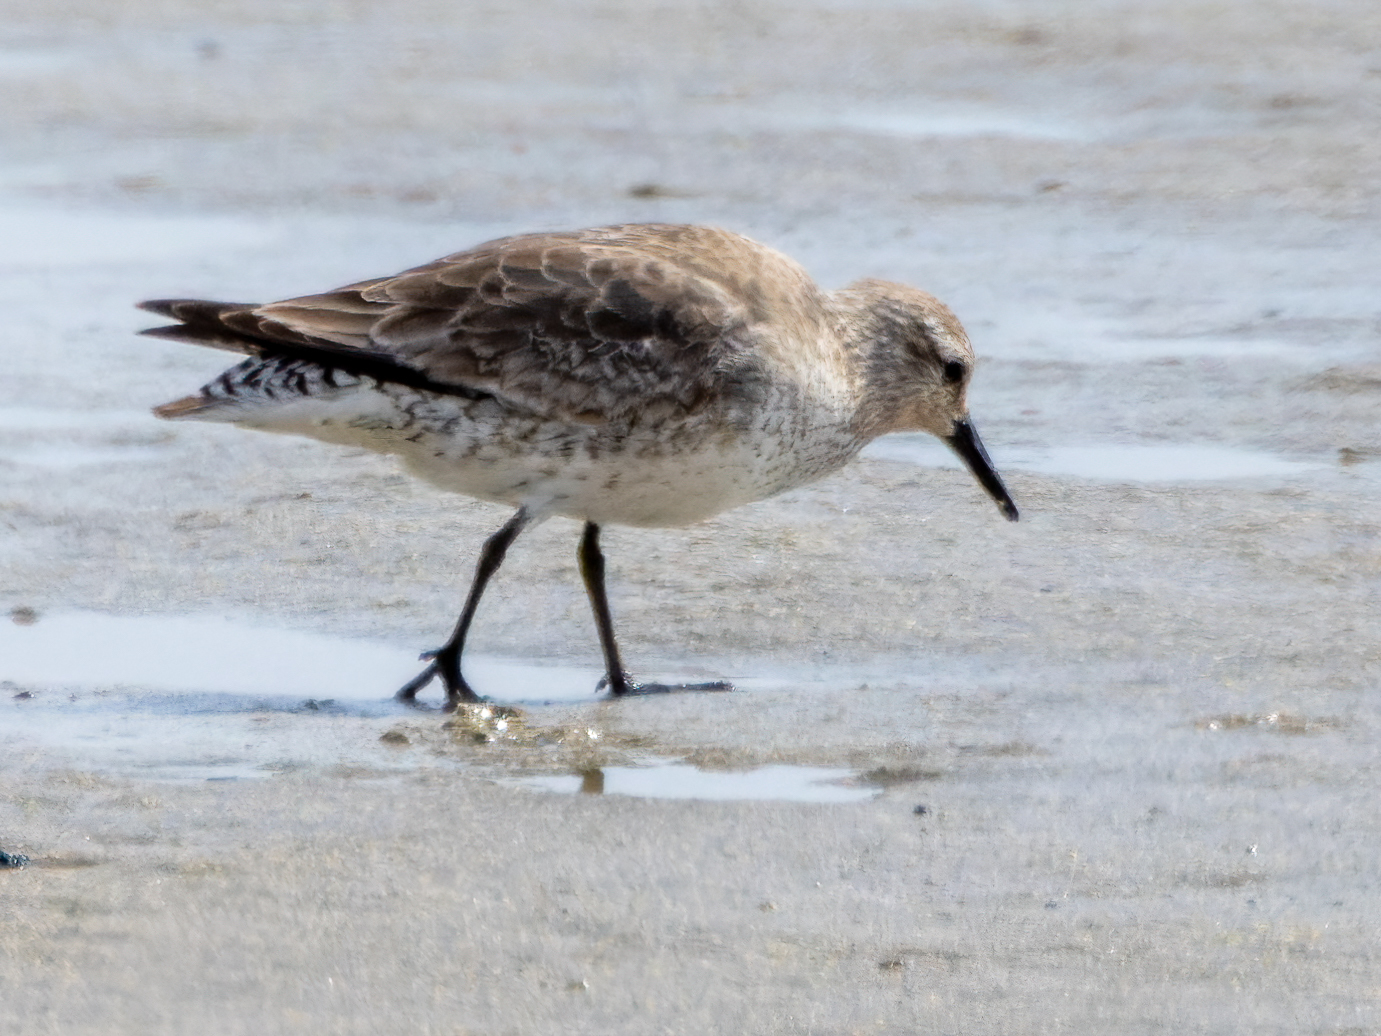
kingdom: Animalia
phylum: Chordata
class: Aves
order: Charadriiformes
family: Scolopacidae
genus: Calidris
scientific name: Calidris canutus
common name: Red knot
